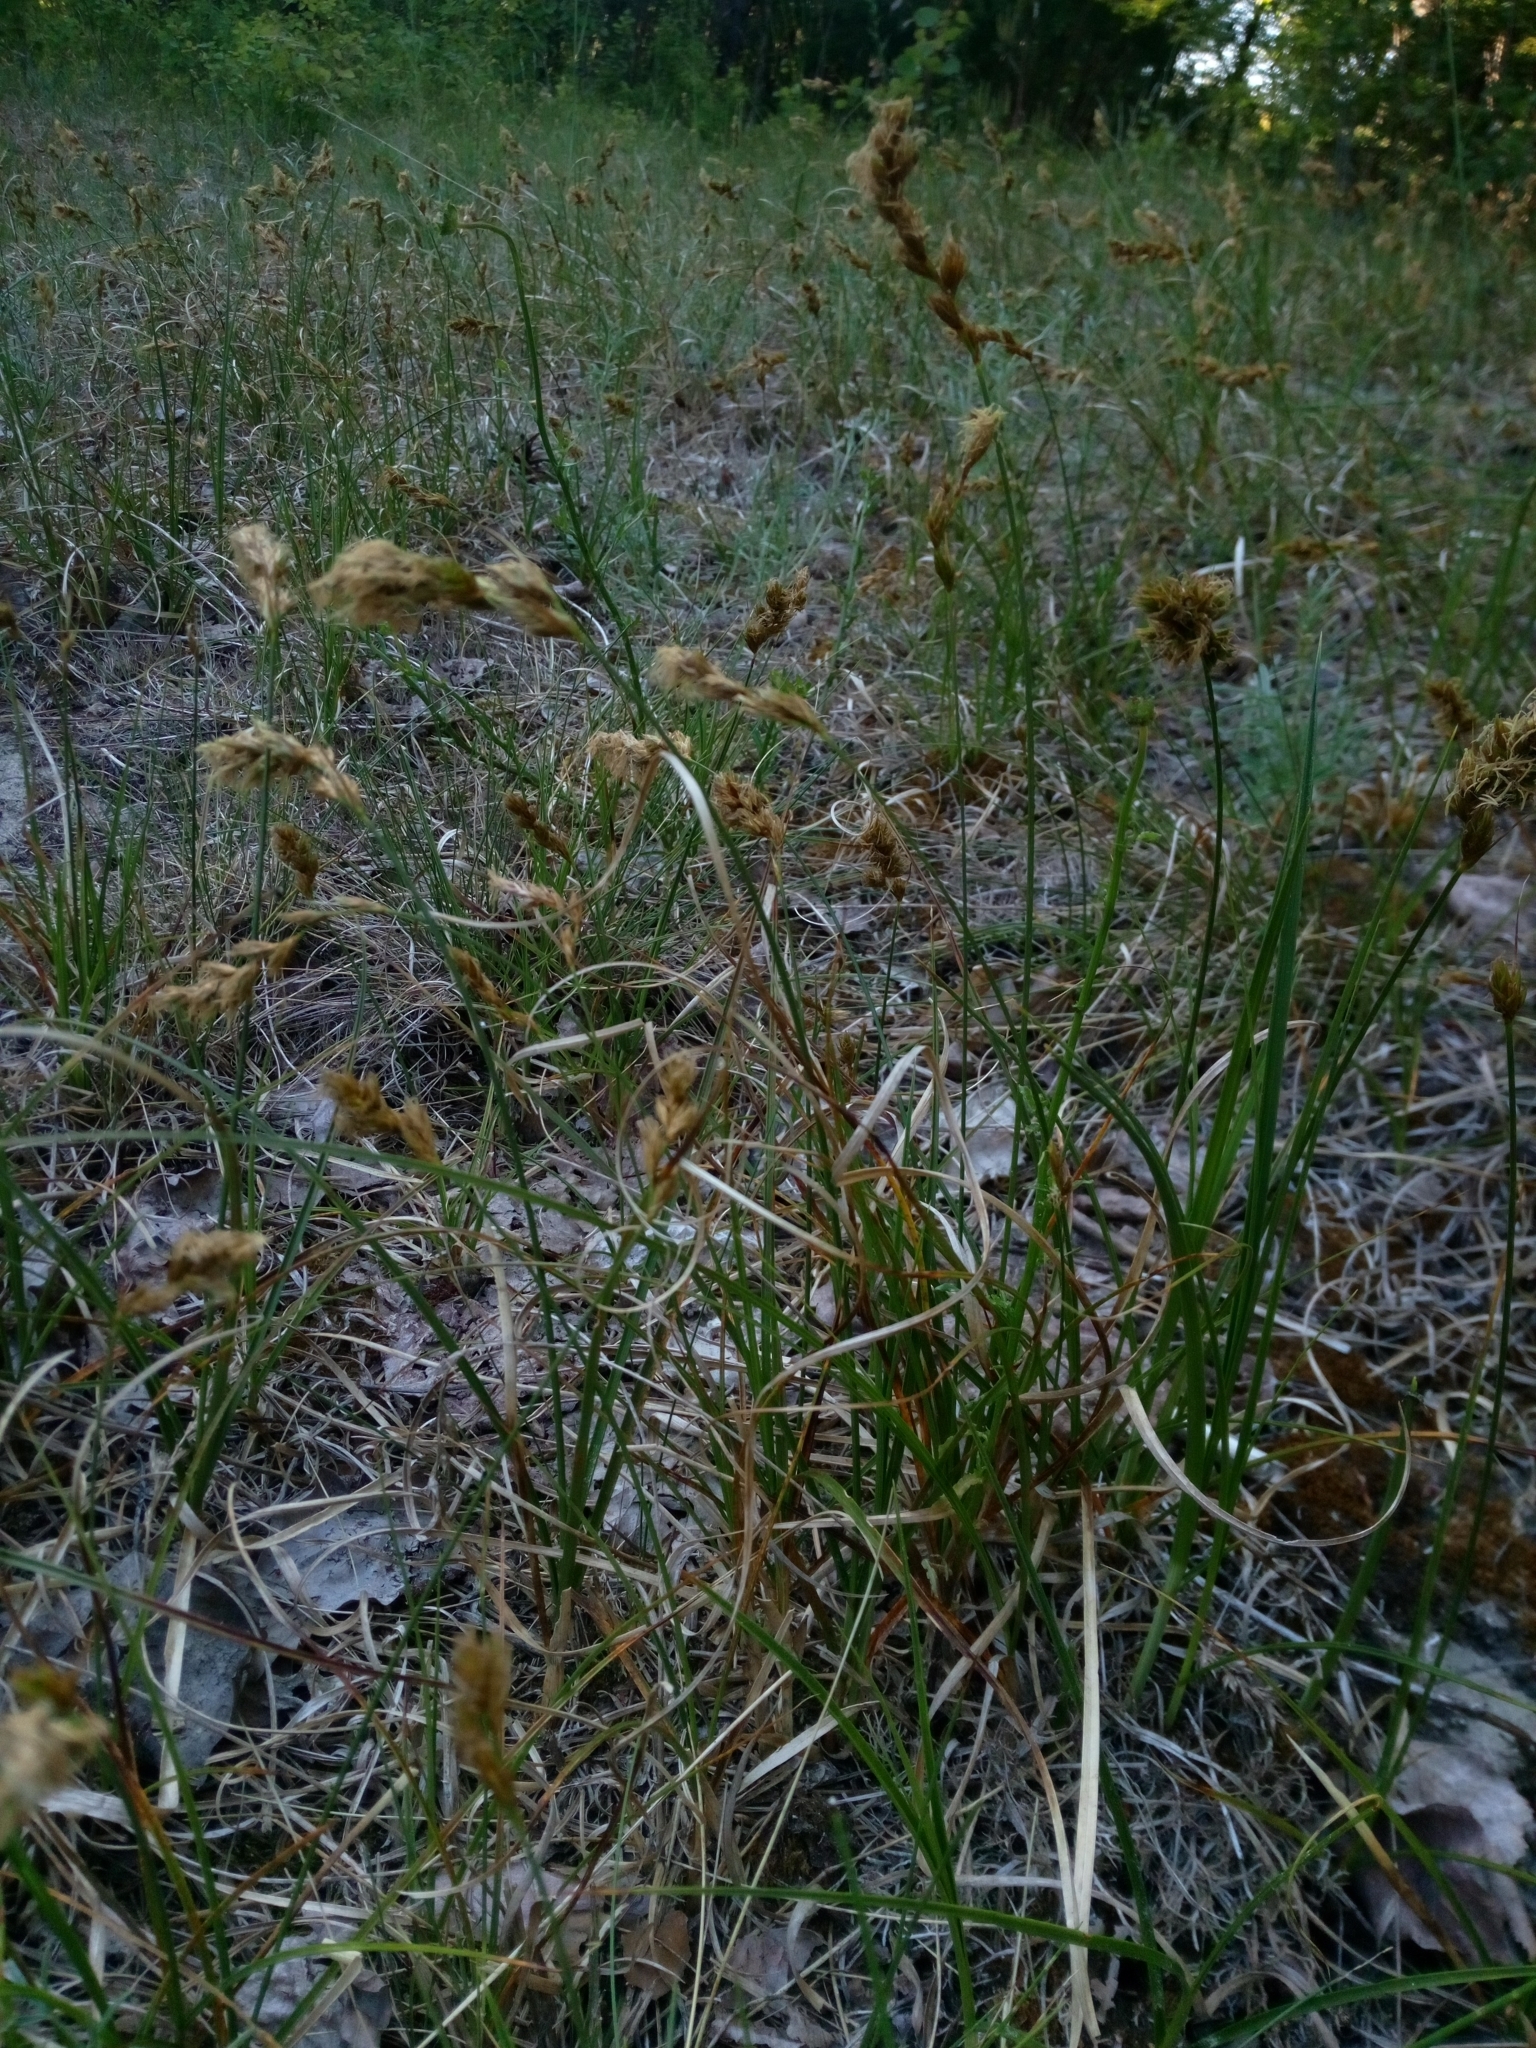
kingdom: Plantae
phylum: Tracheophyta
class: Liliopsida
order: Poales
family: Cyperaceae
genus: Carex
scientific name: Carex arenaria
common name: Sand sedge
